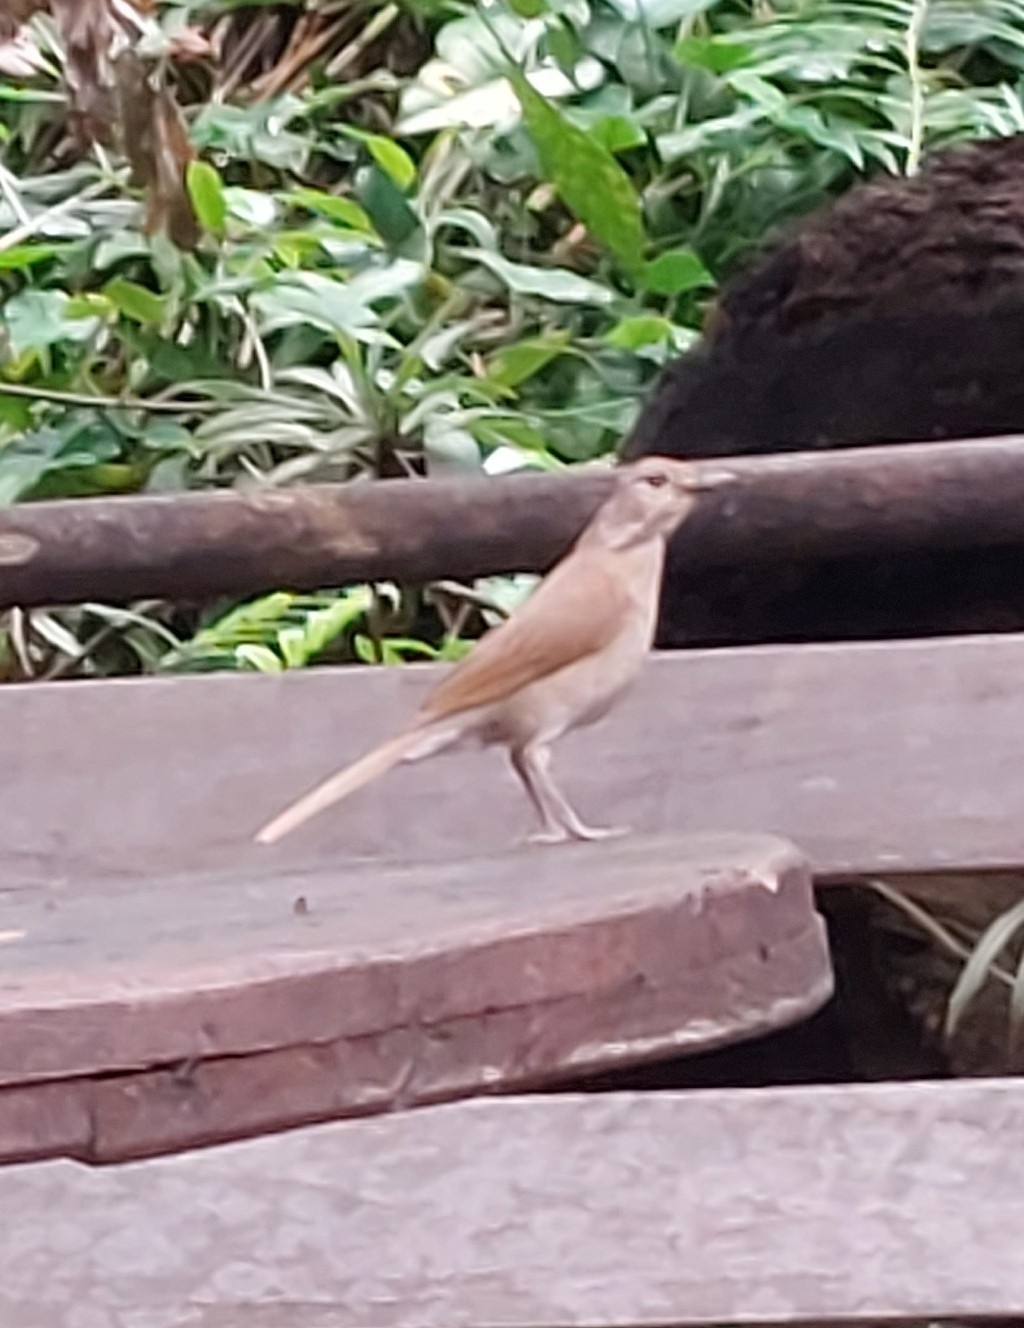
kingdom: Animalia
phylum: Chordata
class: Aves
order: Passeriformes
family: Turdidae
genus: Turdus
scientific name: Turdus leucomelas
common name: Pale-breasted thrush
